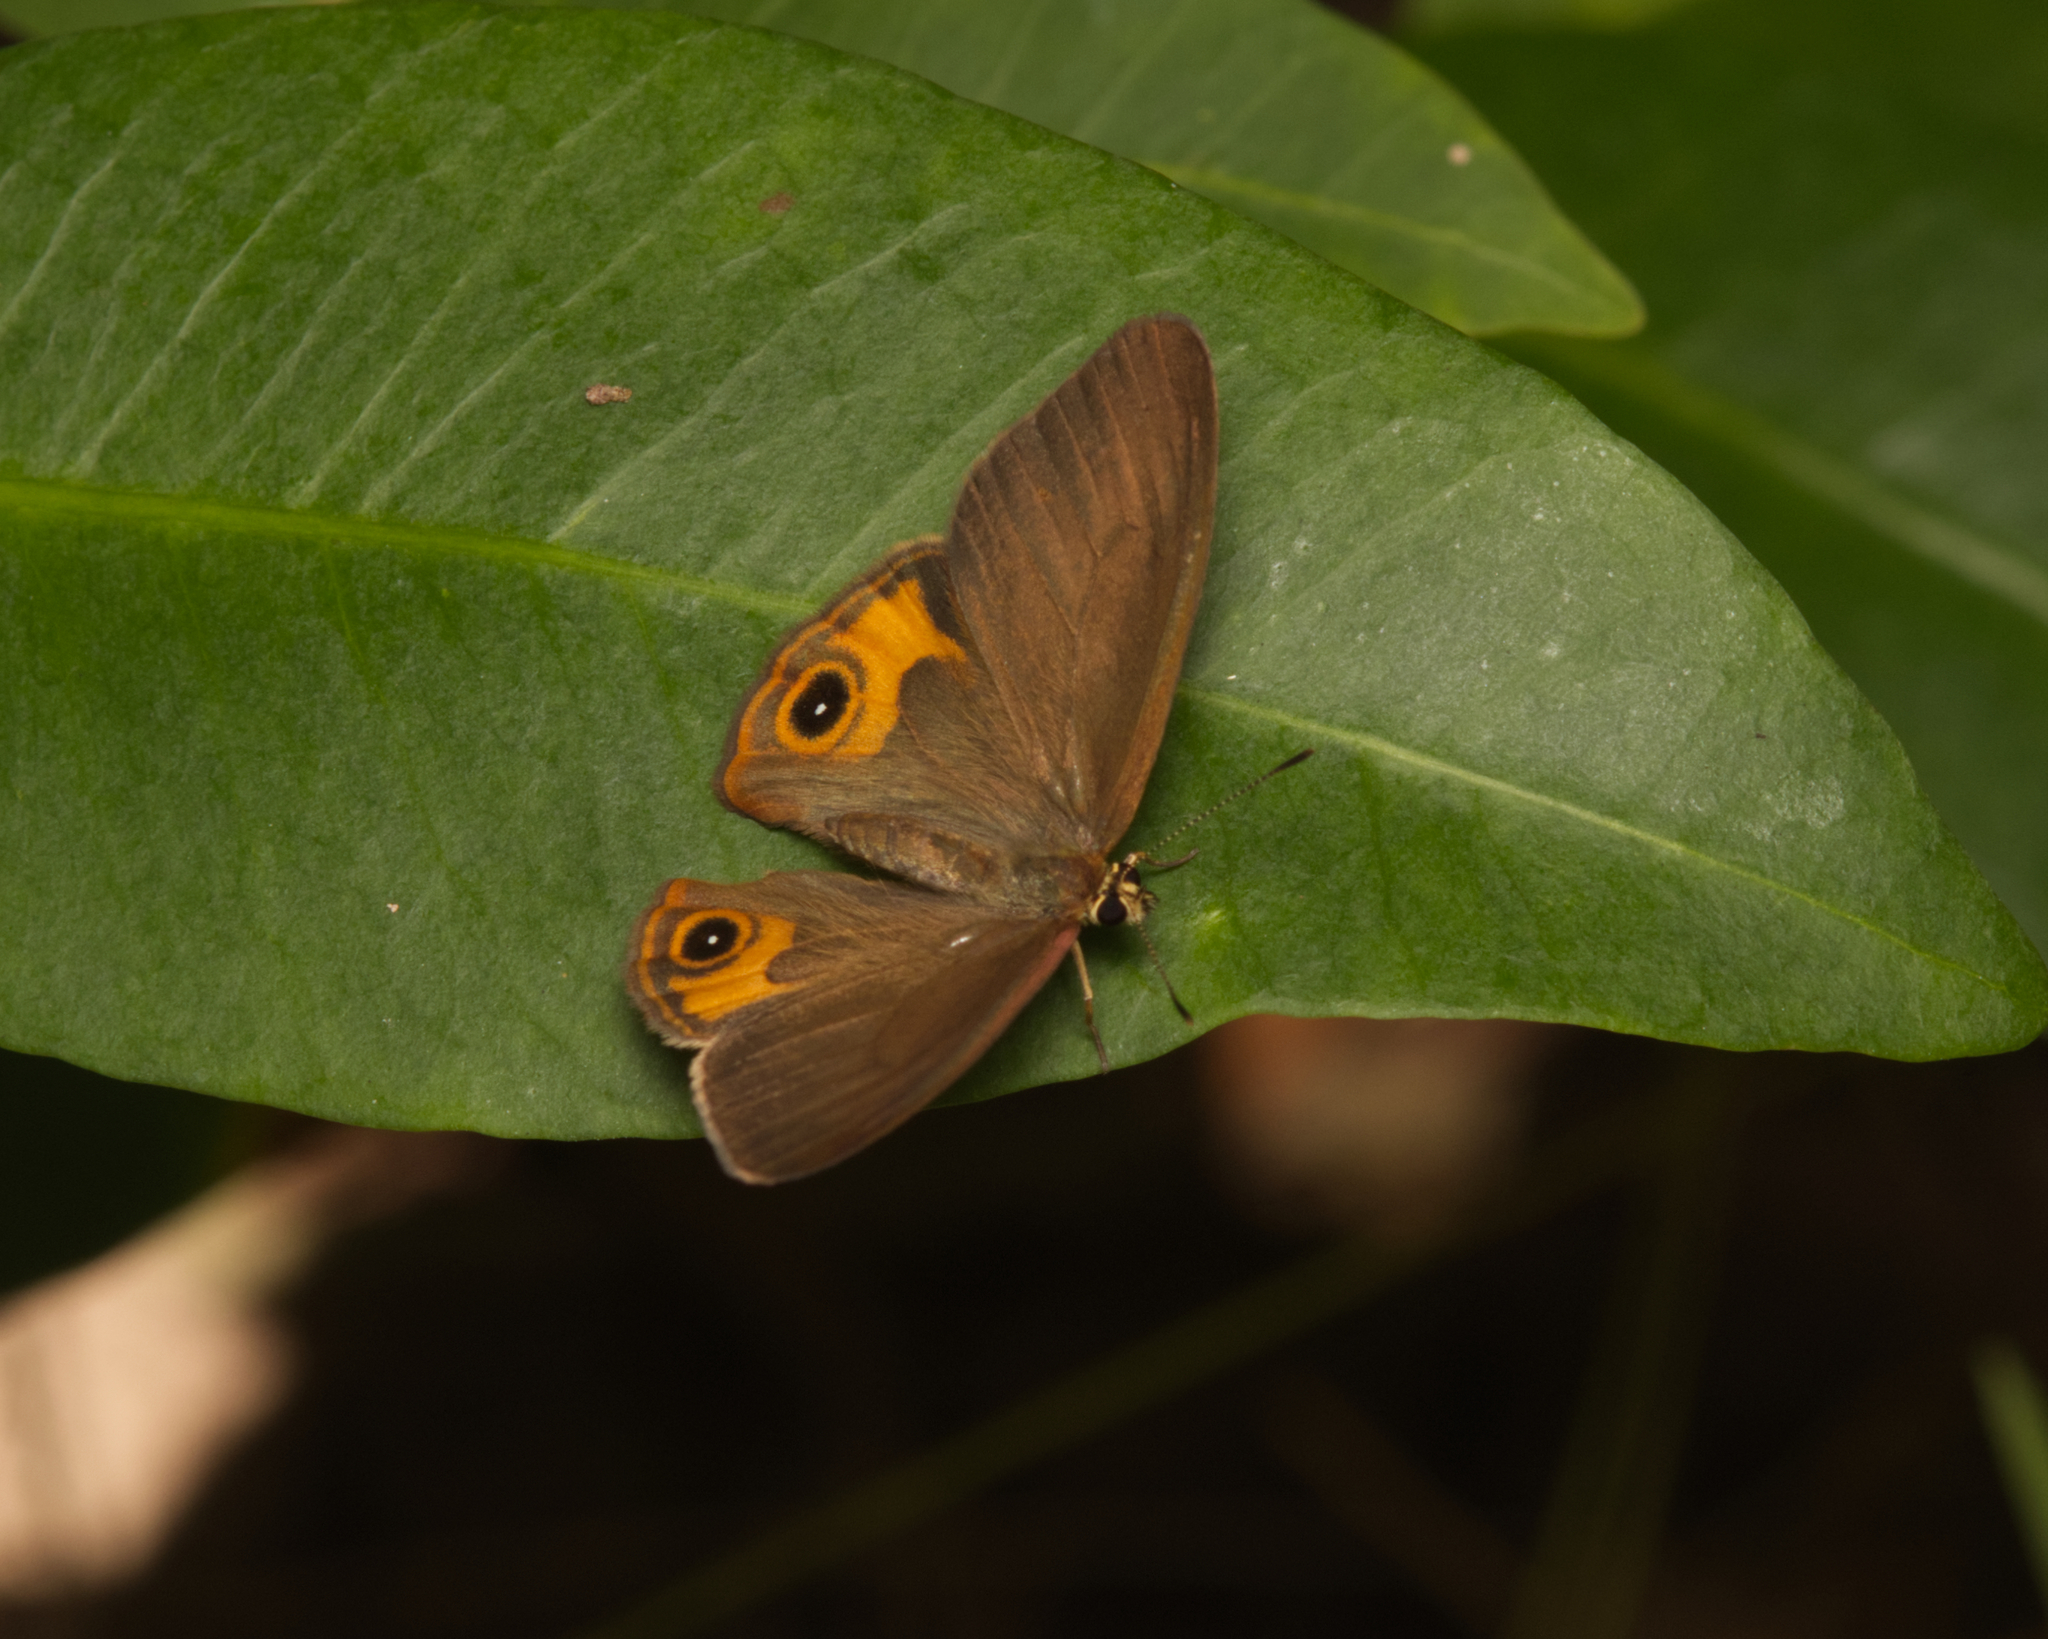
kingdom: Animalia
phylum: Arthropoda
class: Insecta
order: Lepidoptera
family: Nymphalidae
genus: Hypocysta
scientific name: Hypocysta metirius
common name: Brown ringlet
